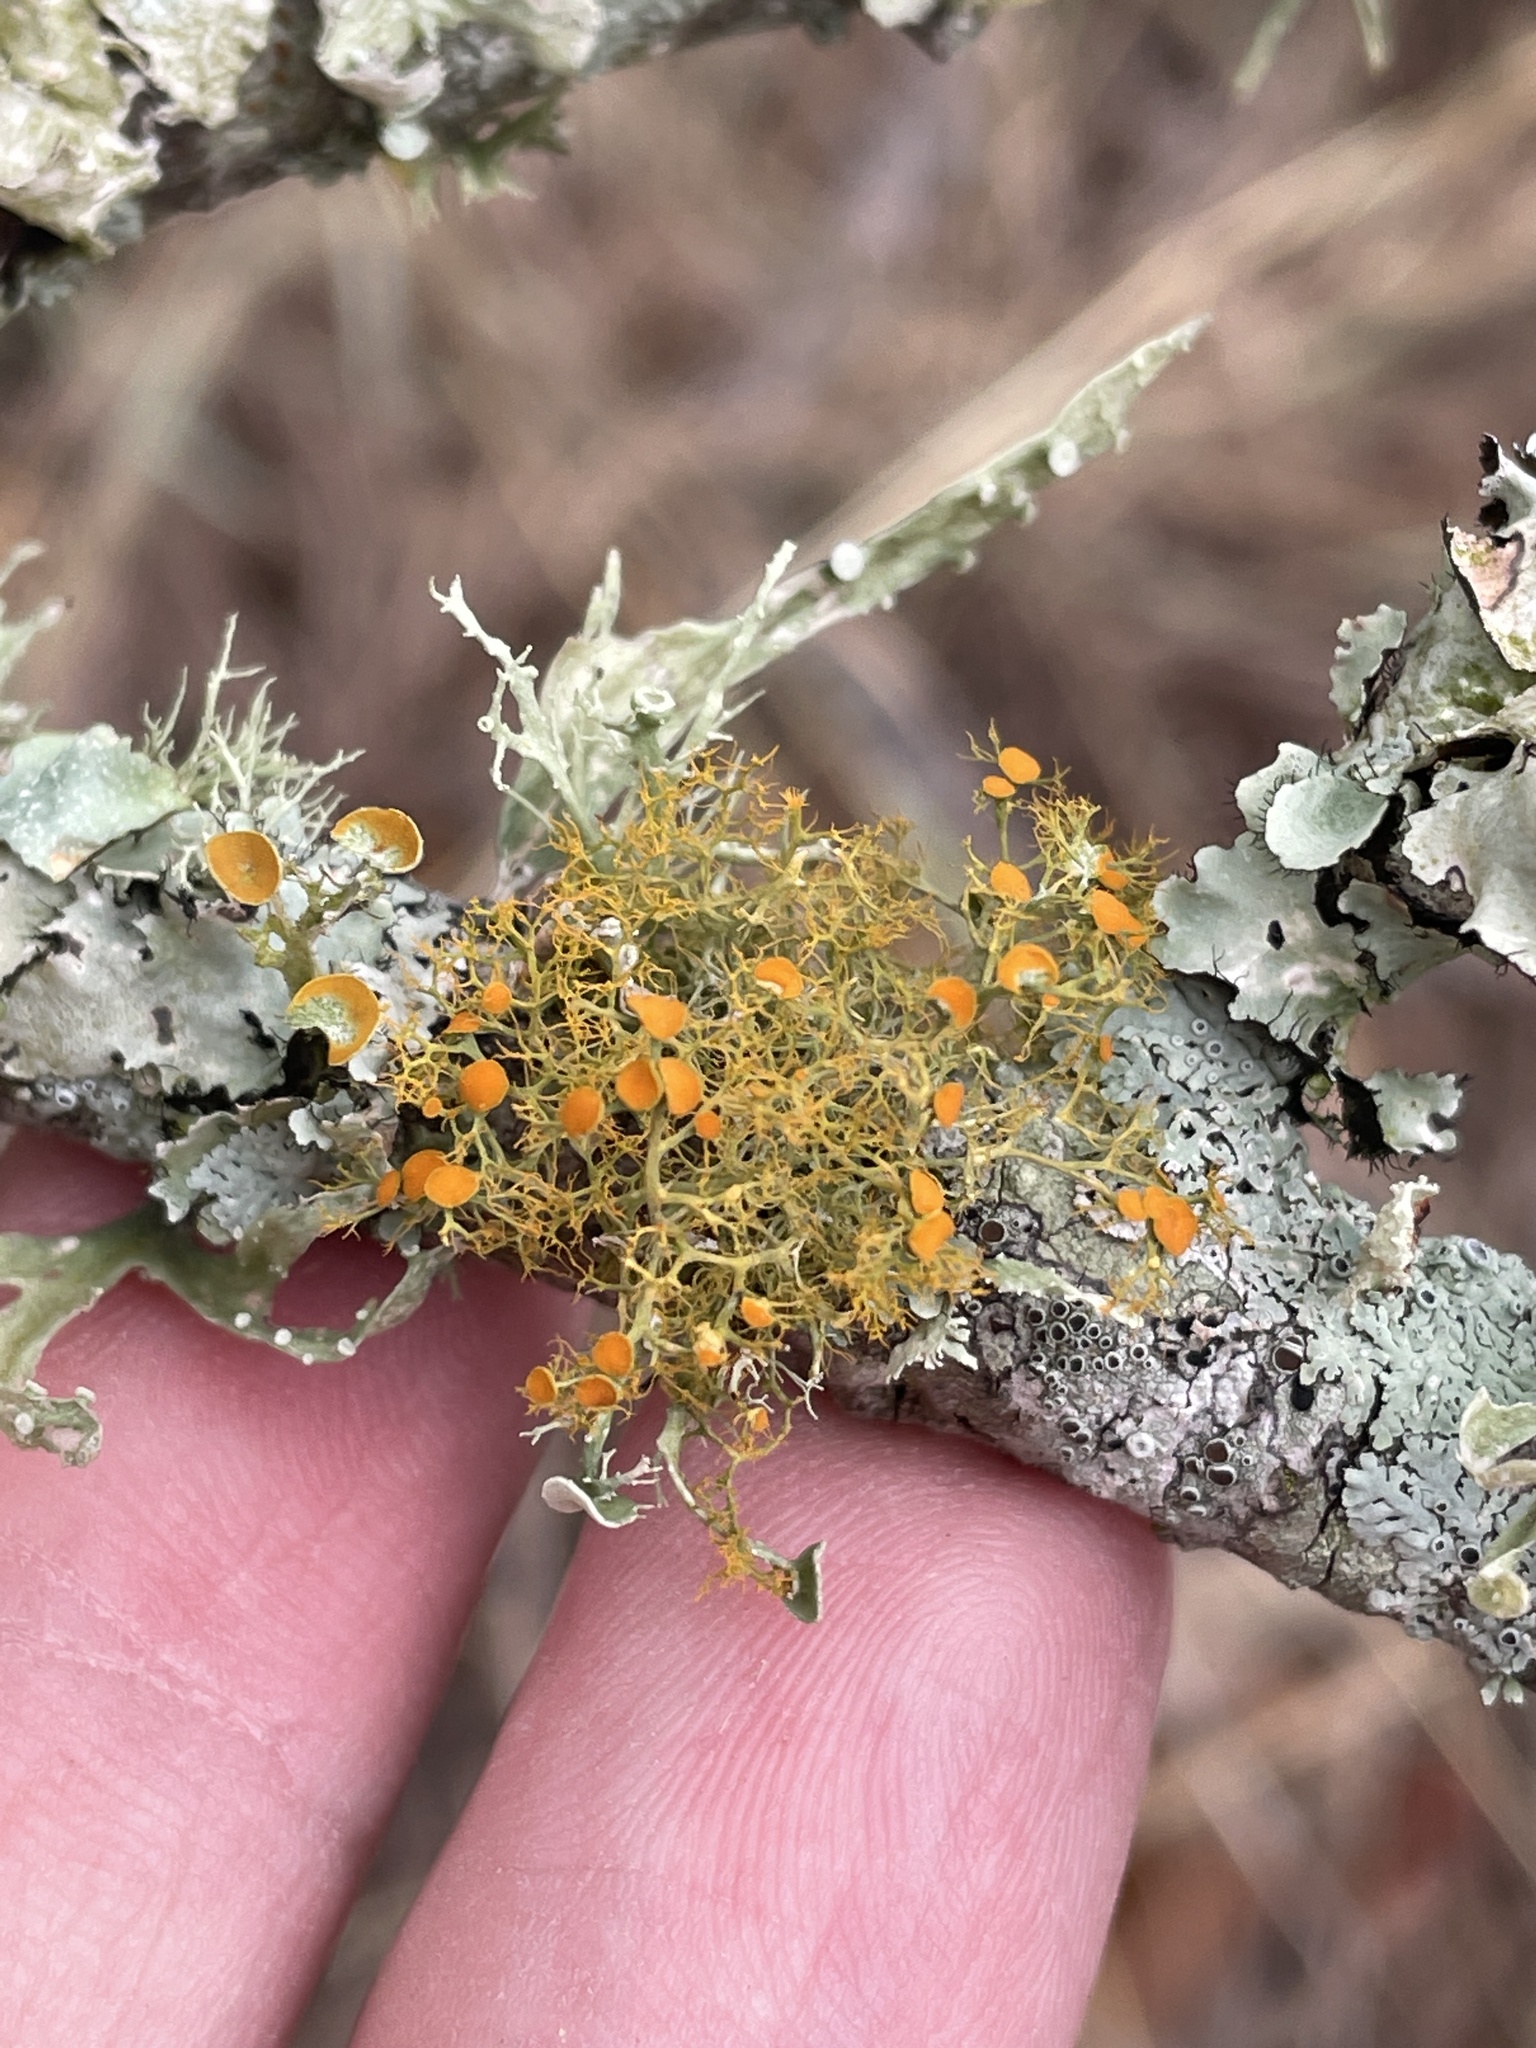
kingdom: Fungi
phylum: Ascomycota
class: Lecanoromycetes
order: Teloschistales
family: Teloschistaceae
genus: Teloschistes
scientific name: Teloschistes exilis
